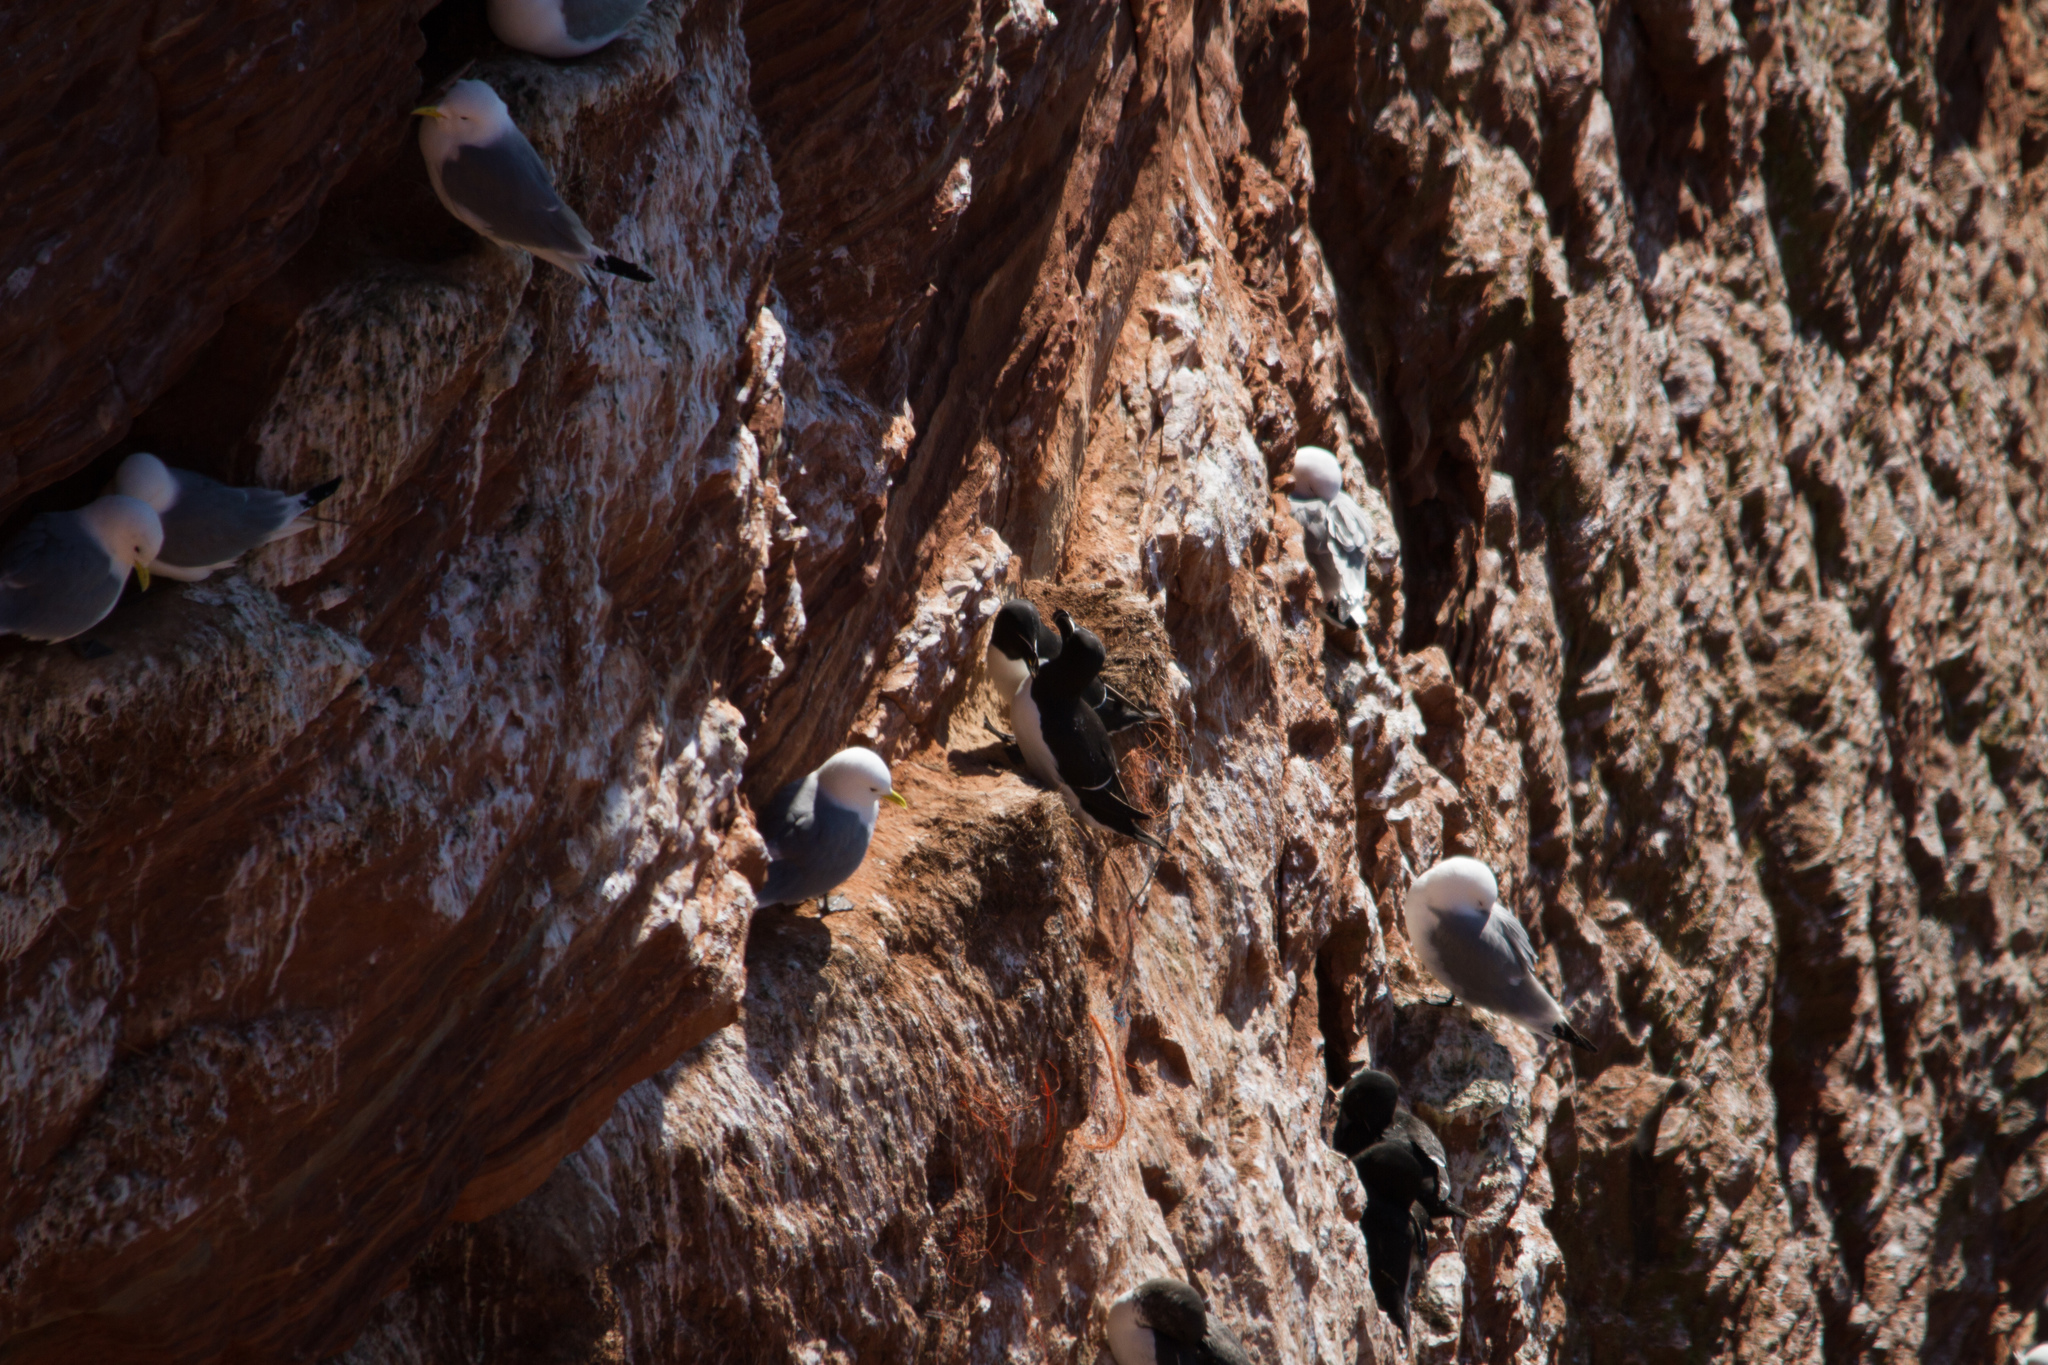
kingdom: Animalia
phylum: Chordata
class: Aves
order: Charadriiformes
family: Alcidae
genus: Alca
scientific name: Alca torda
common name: Razorbill
